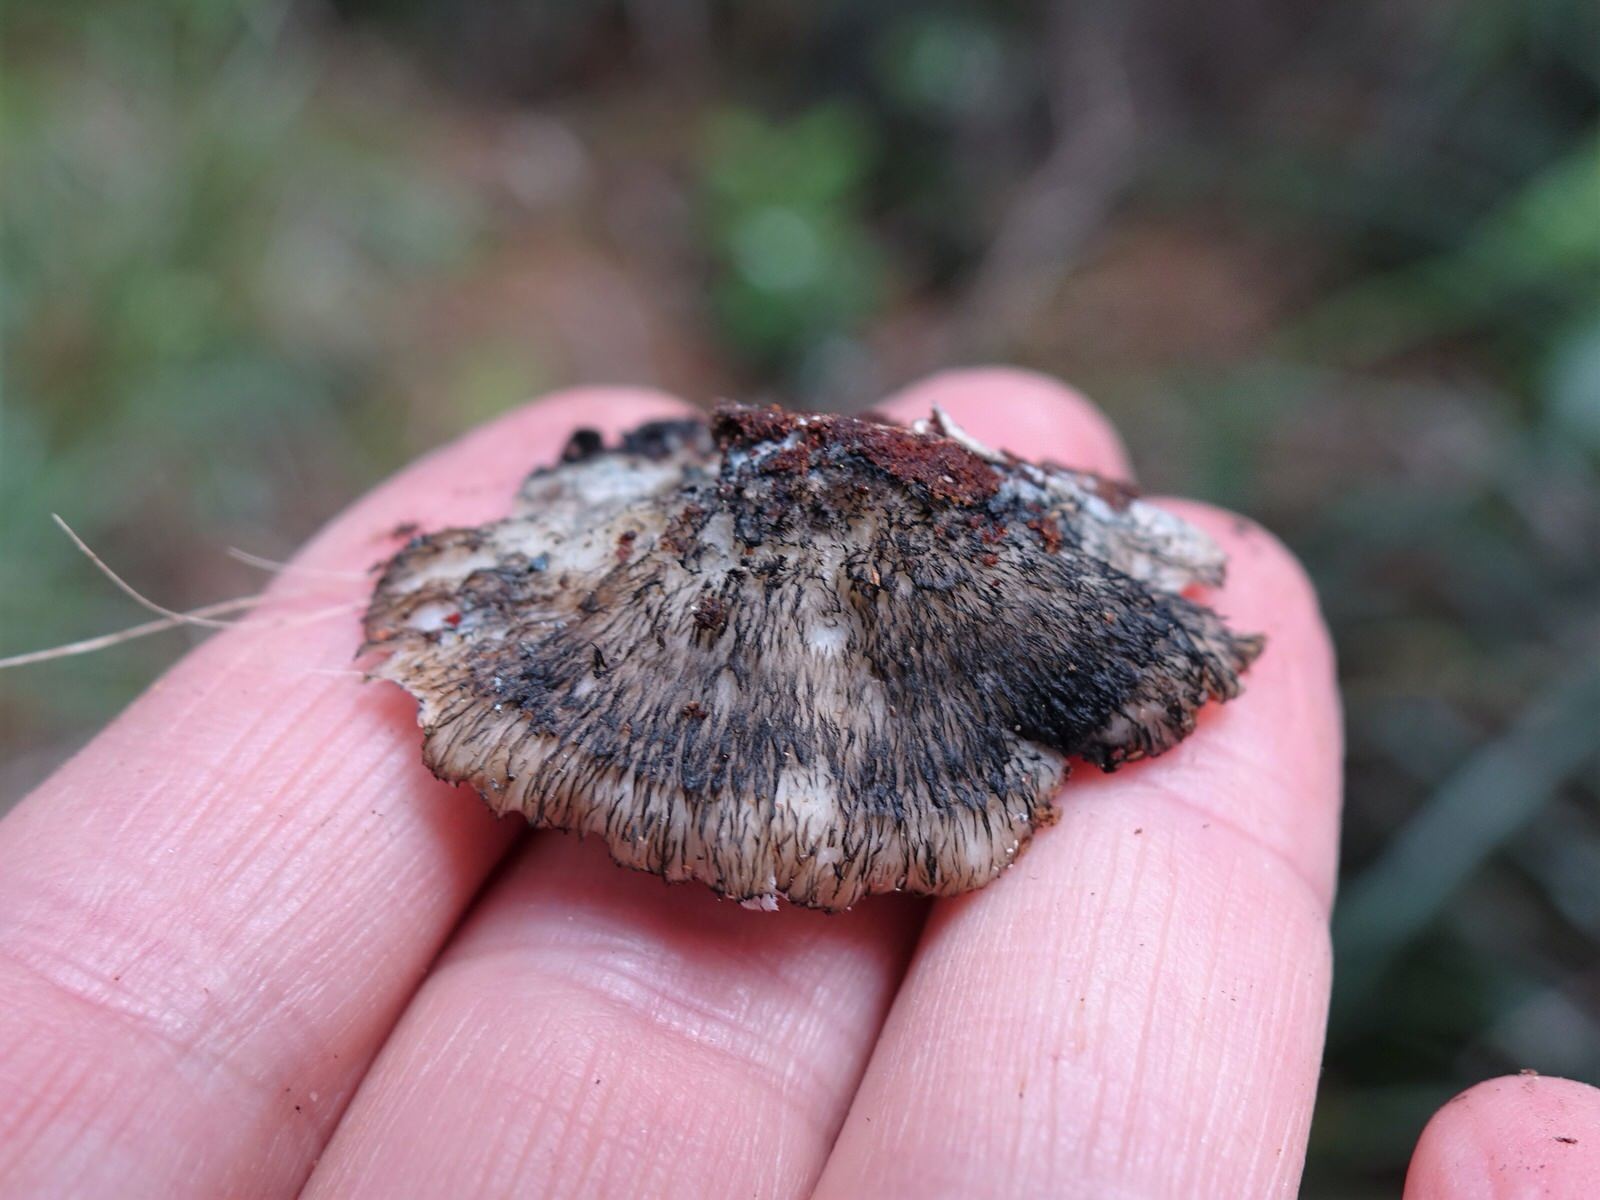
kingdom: Fungi
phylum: Basidiomycota
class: Agaricomycetes
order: Polyporales
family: Incrustoporiaceae
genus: Tyromyces
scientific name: Tyromyces atrostrigosus
